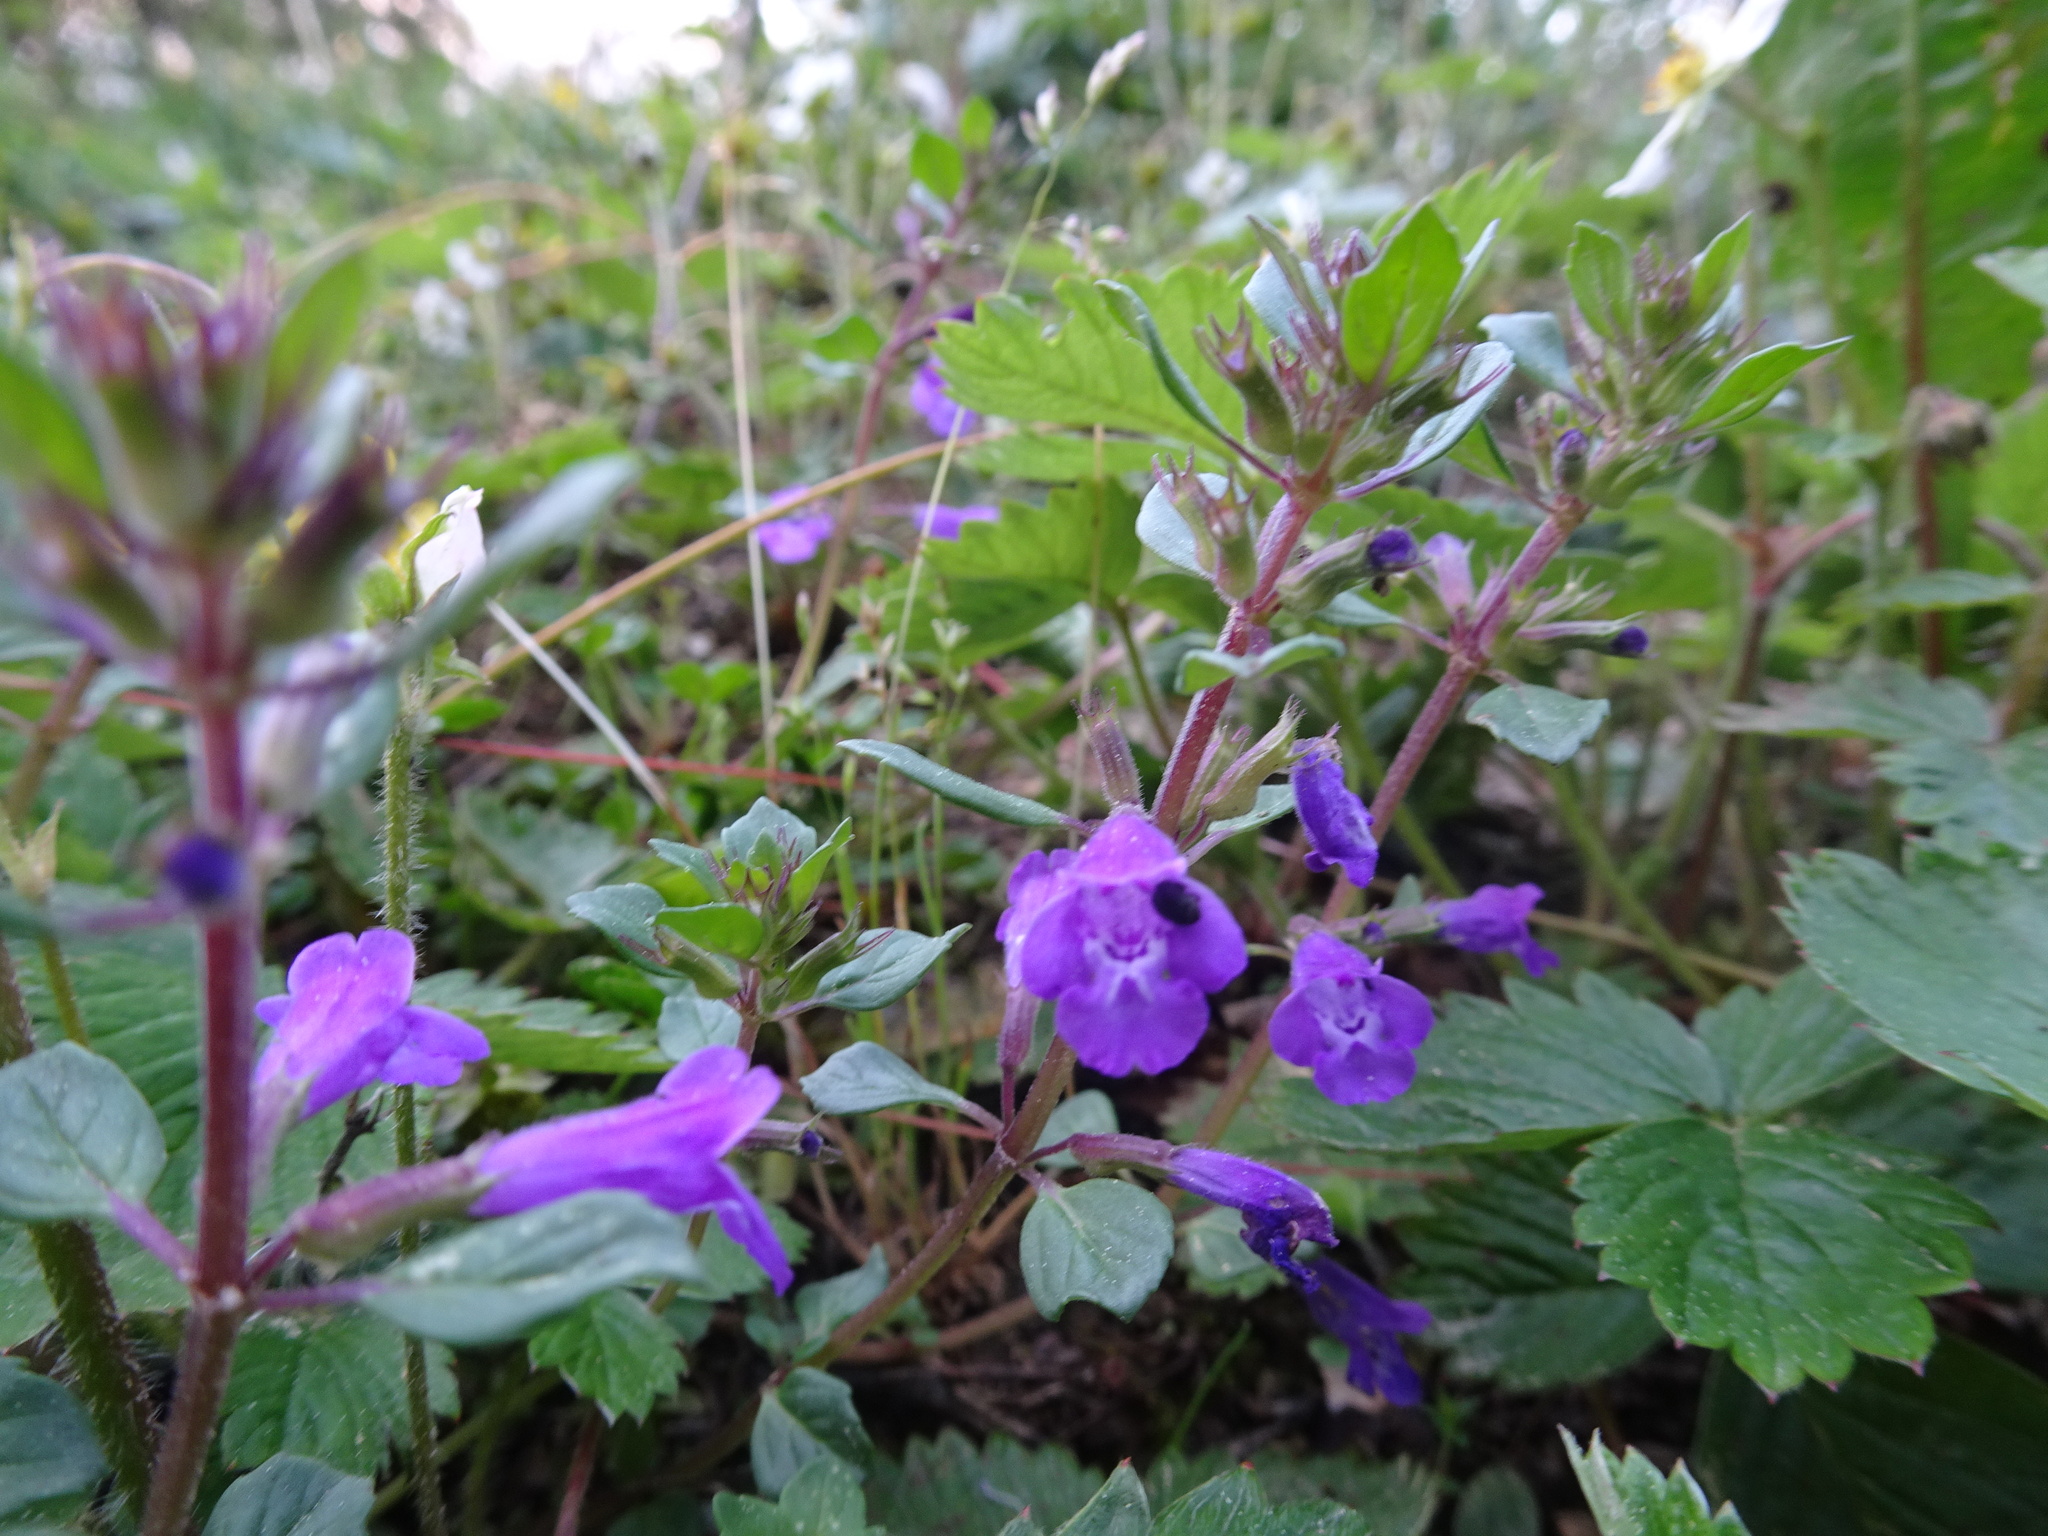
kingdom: Plantae
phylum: Tracheophyta
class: Magnoliopsida
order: Lamiales
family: Lamiaceae
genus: Clinopodium
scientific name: Clinopodium alpinum
